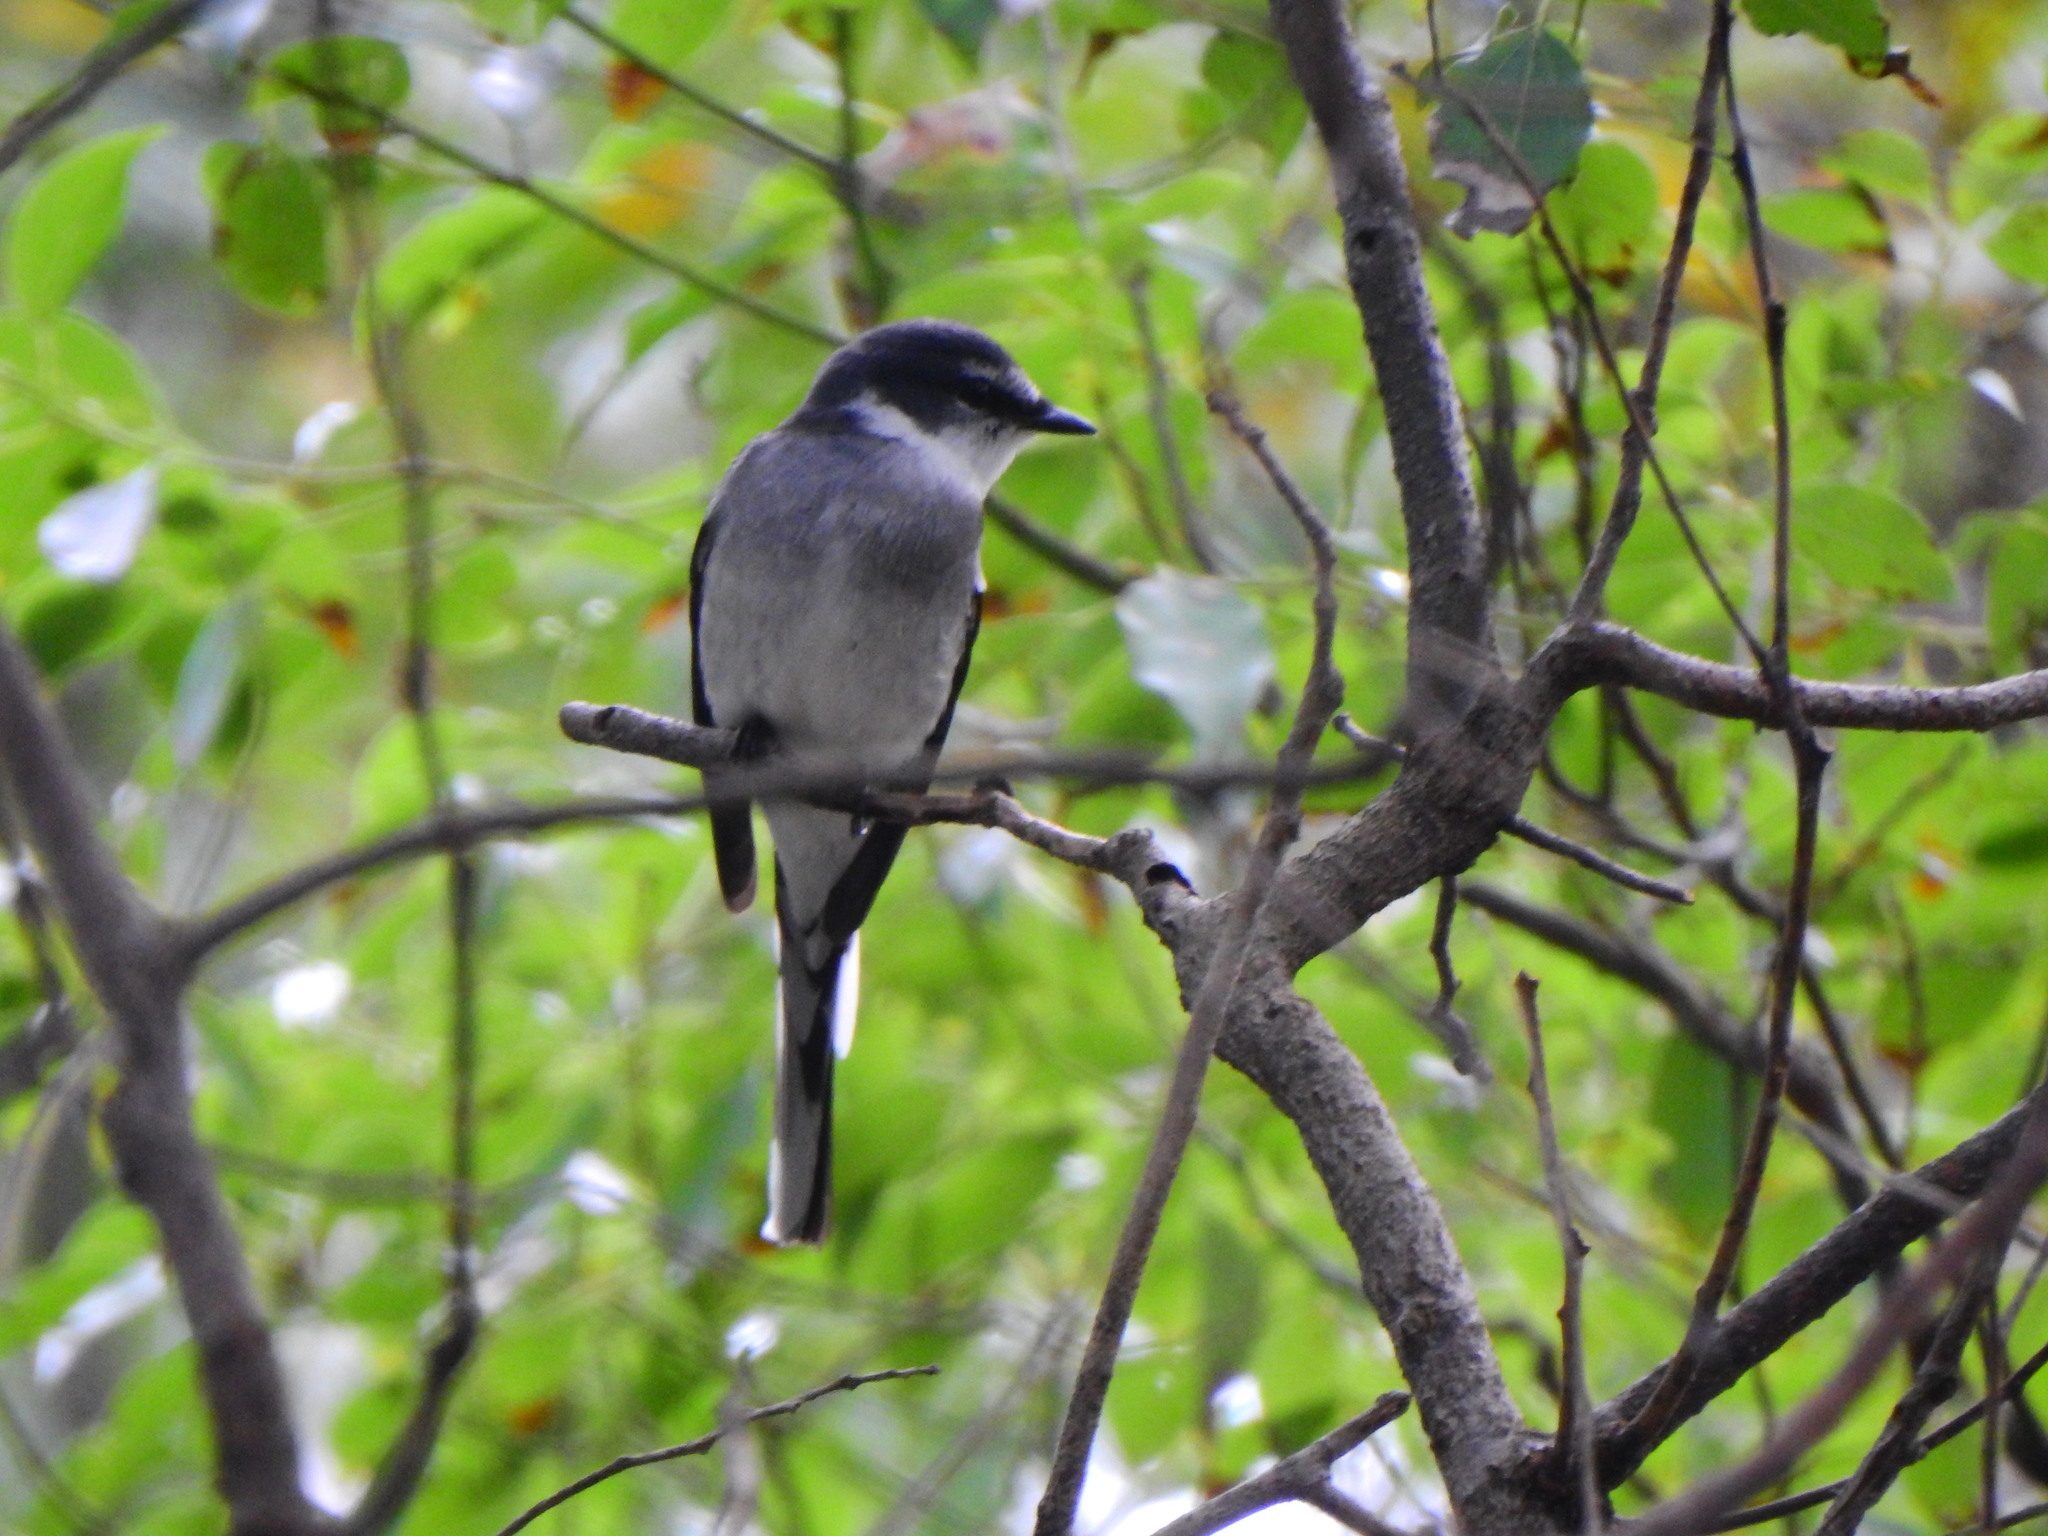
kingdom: Animalia
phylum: Chordata
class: Aves
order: Passeriformes
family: Campephagidae
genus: Pericrocotus
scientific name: Pericrocotus tegimae
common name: Ryukyu minivet
